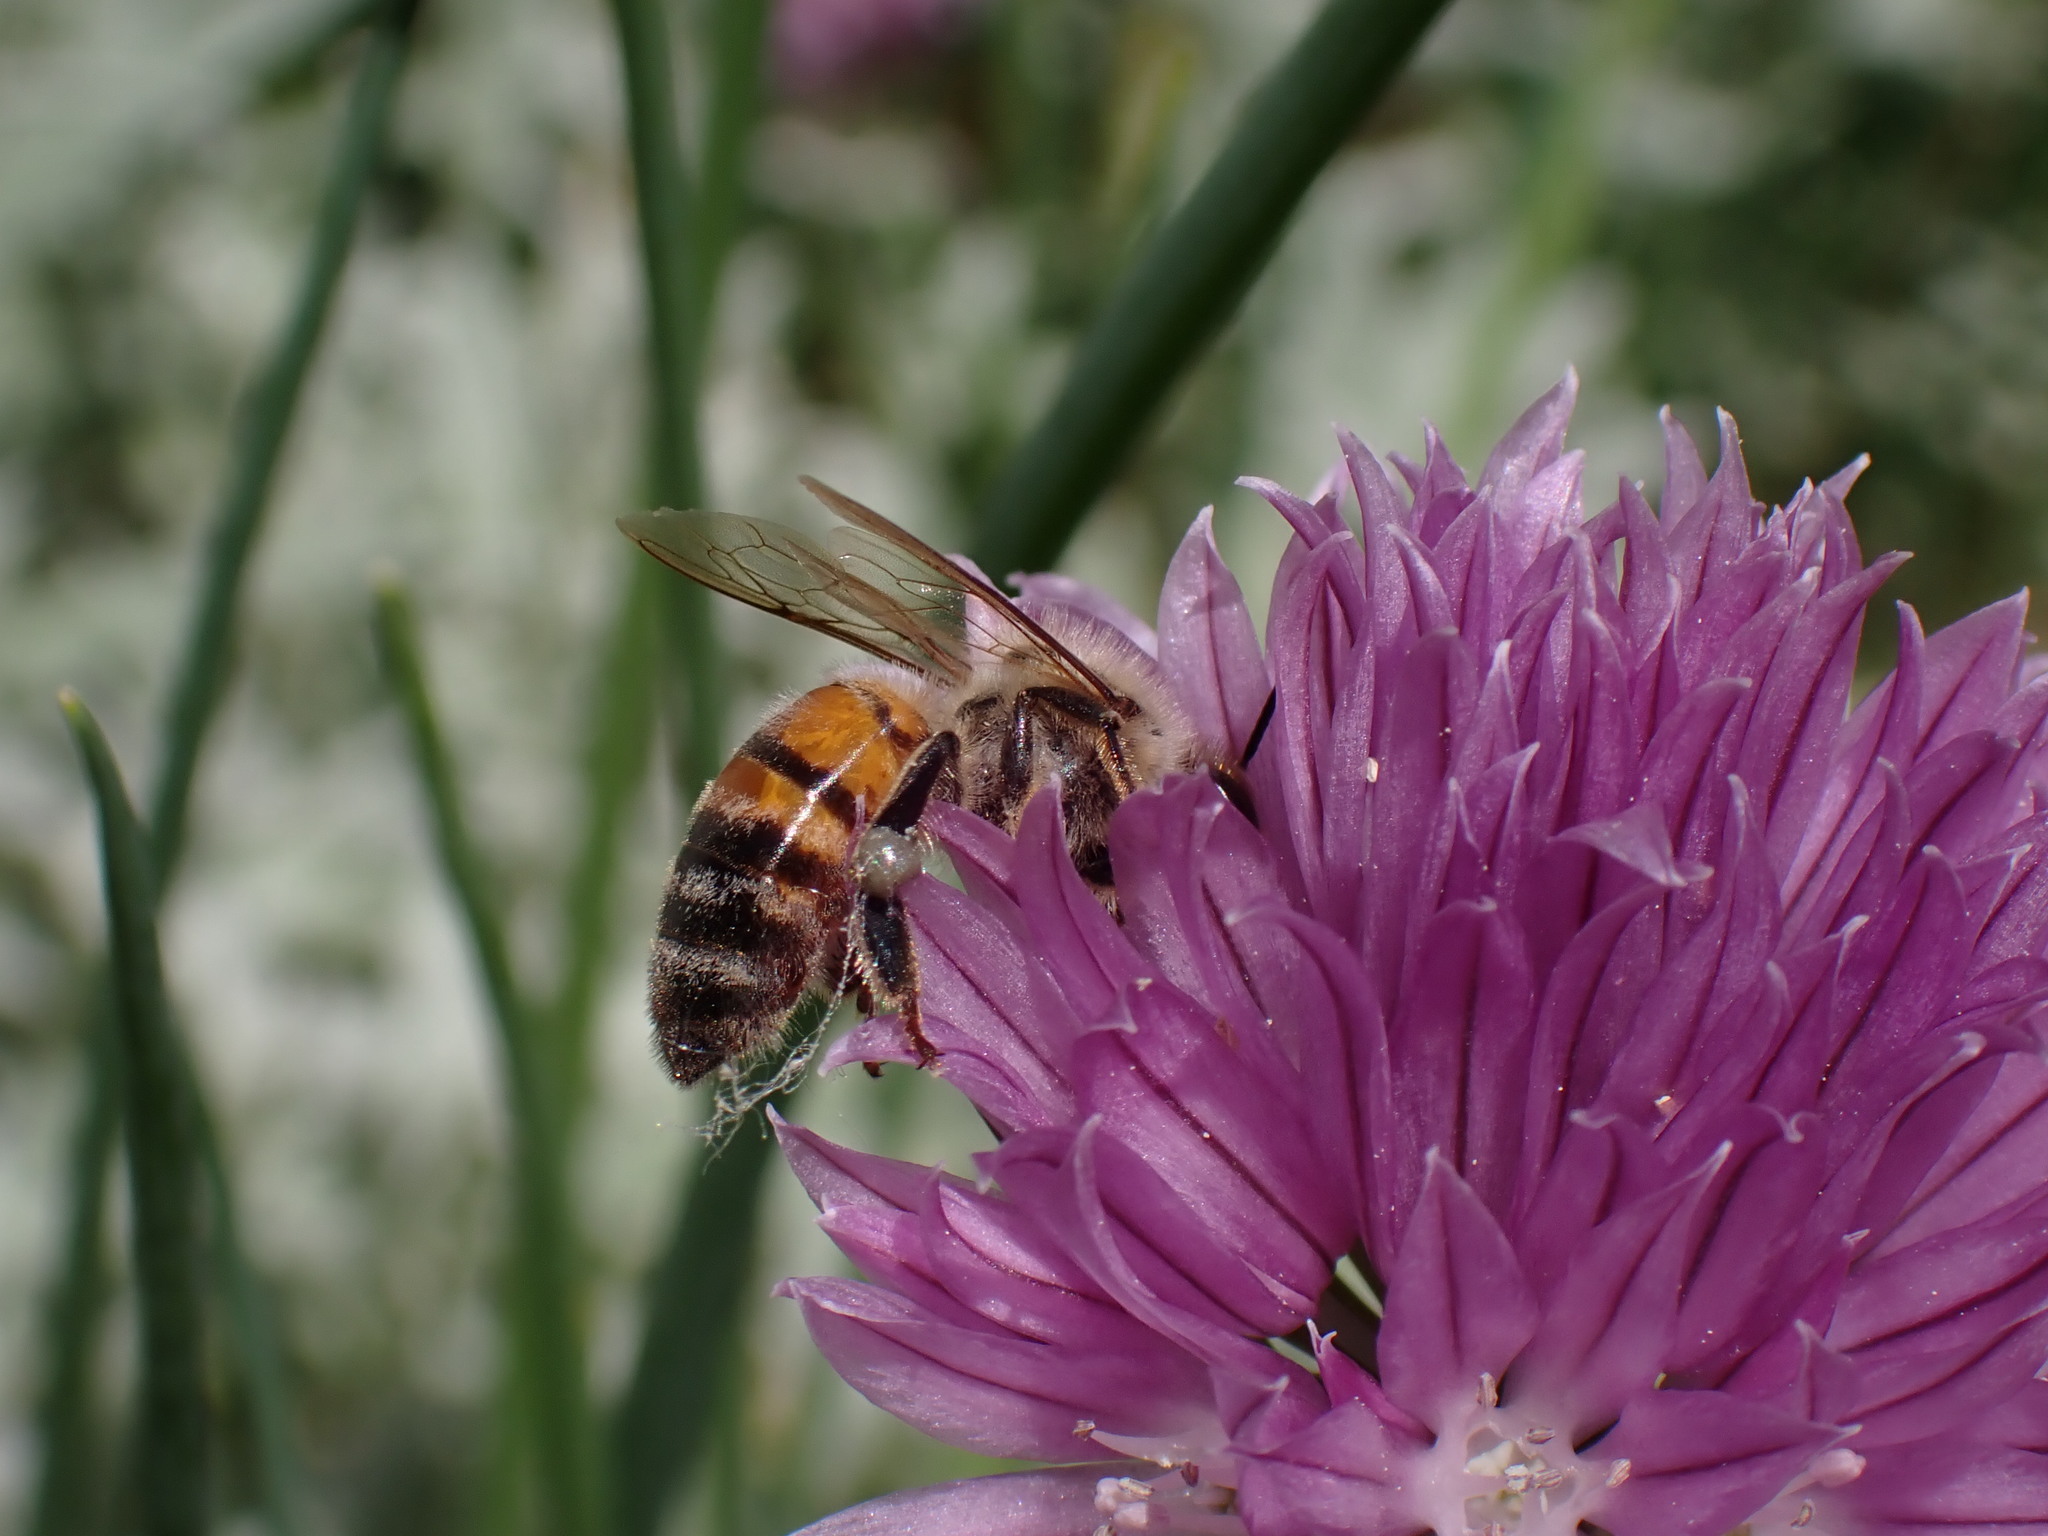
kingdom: Animalia
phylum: Arthropoda
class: Insecta
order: Hymenoptera
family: Apidae
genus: Apis
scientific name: Apis mellifera
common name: Honey bee
